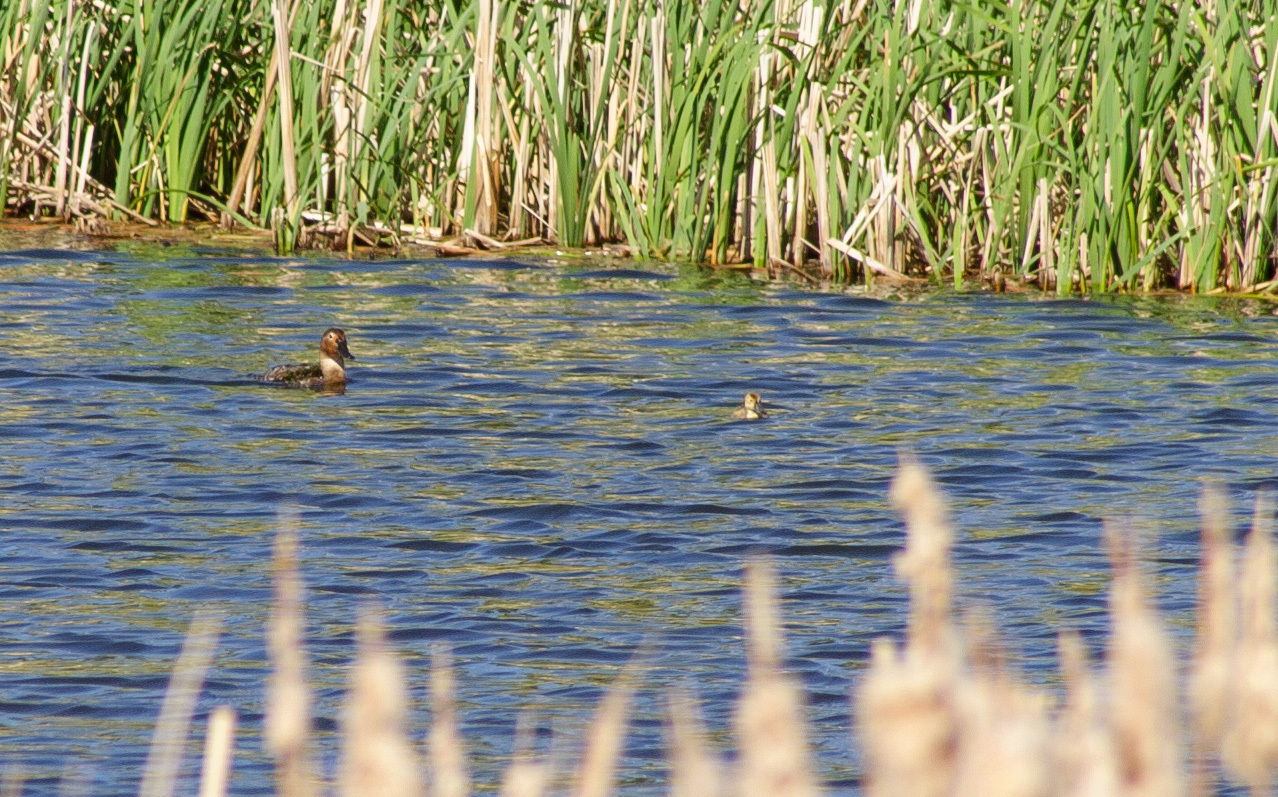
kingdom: Animalia
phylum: Chordata
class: Aves
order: Anseriformes
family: Anatidae
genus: Aythya
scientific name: Aythya valisineria
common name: Canvasback
